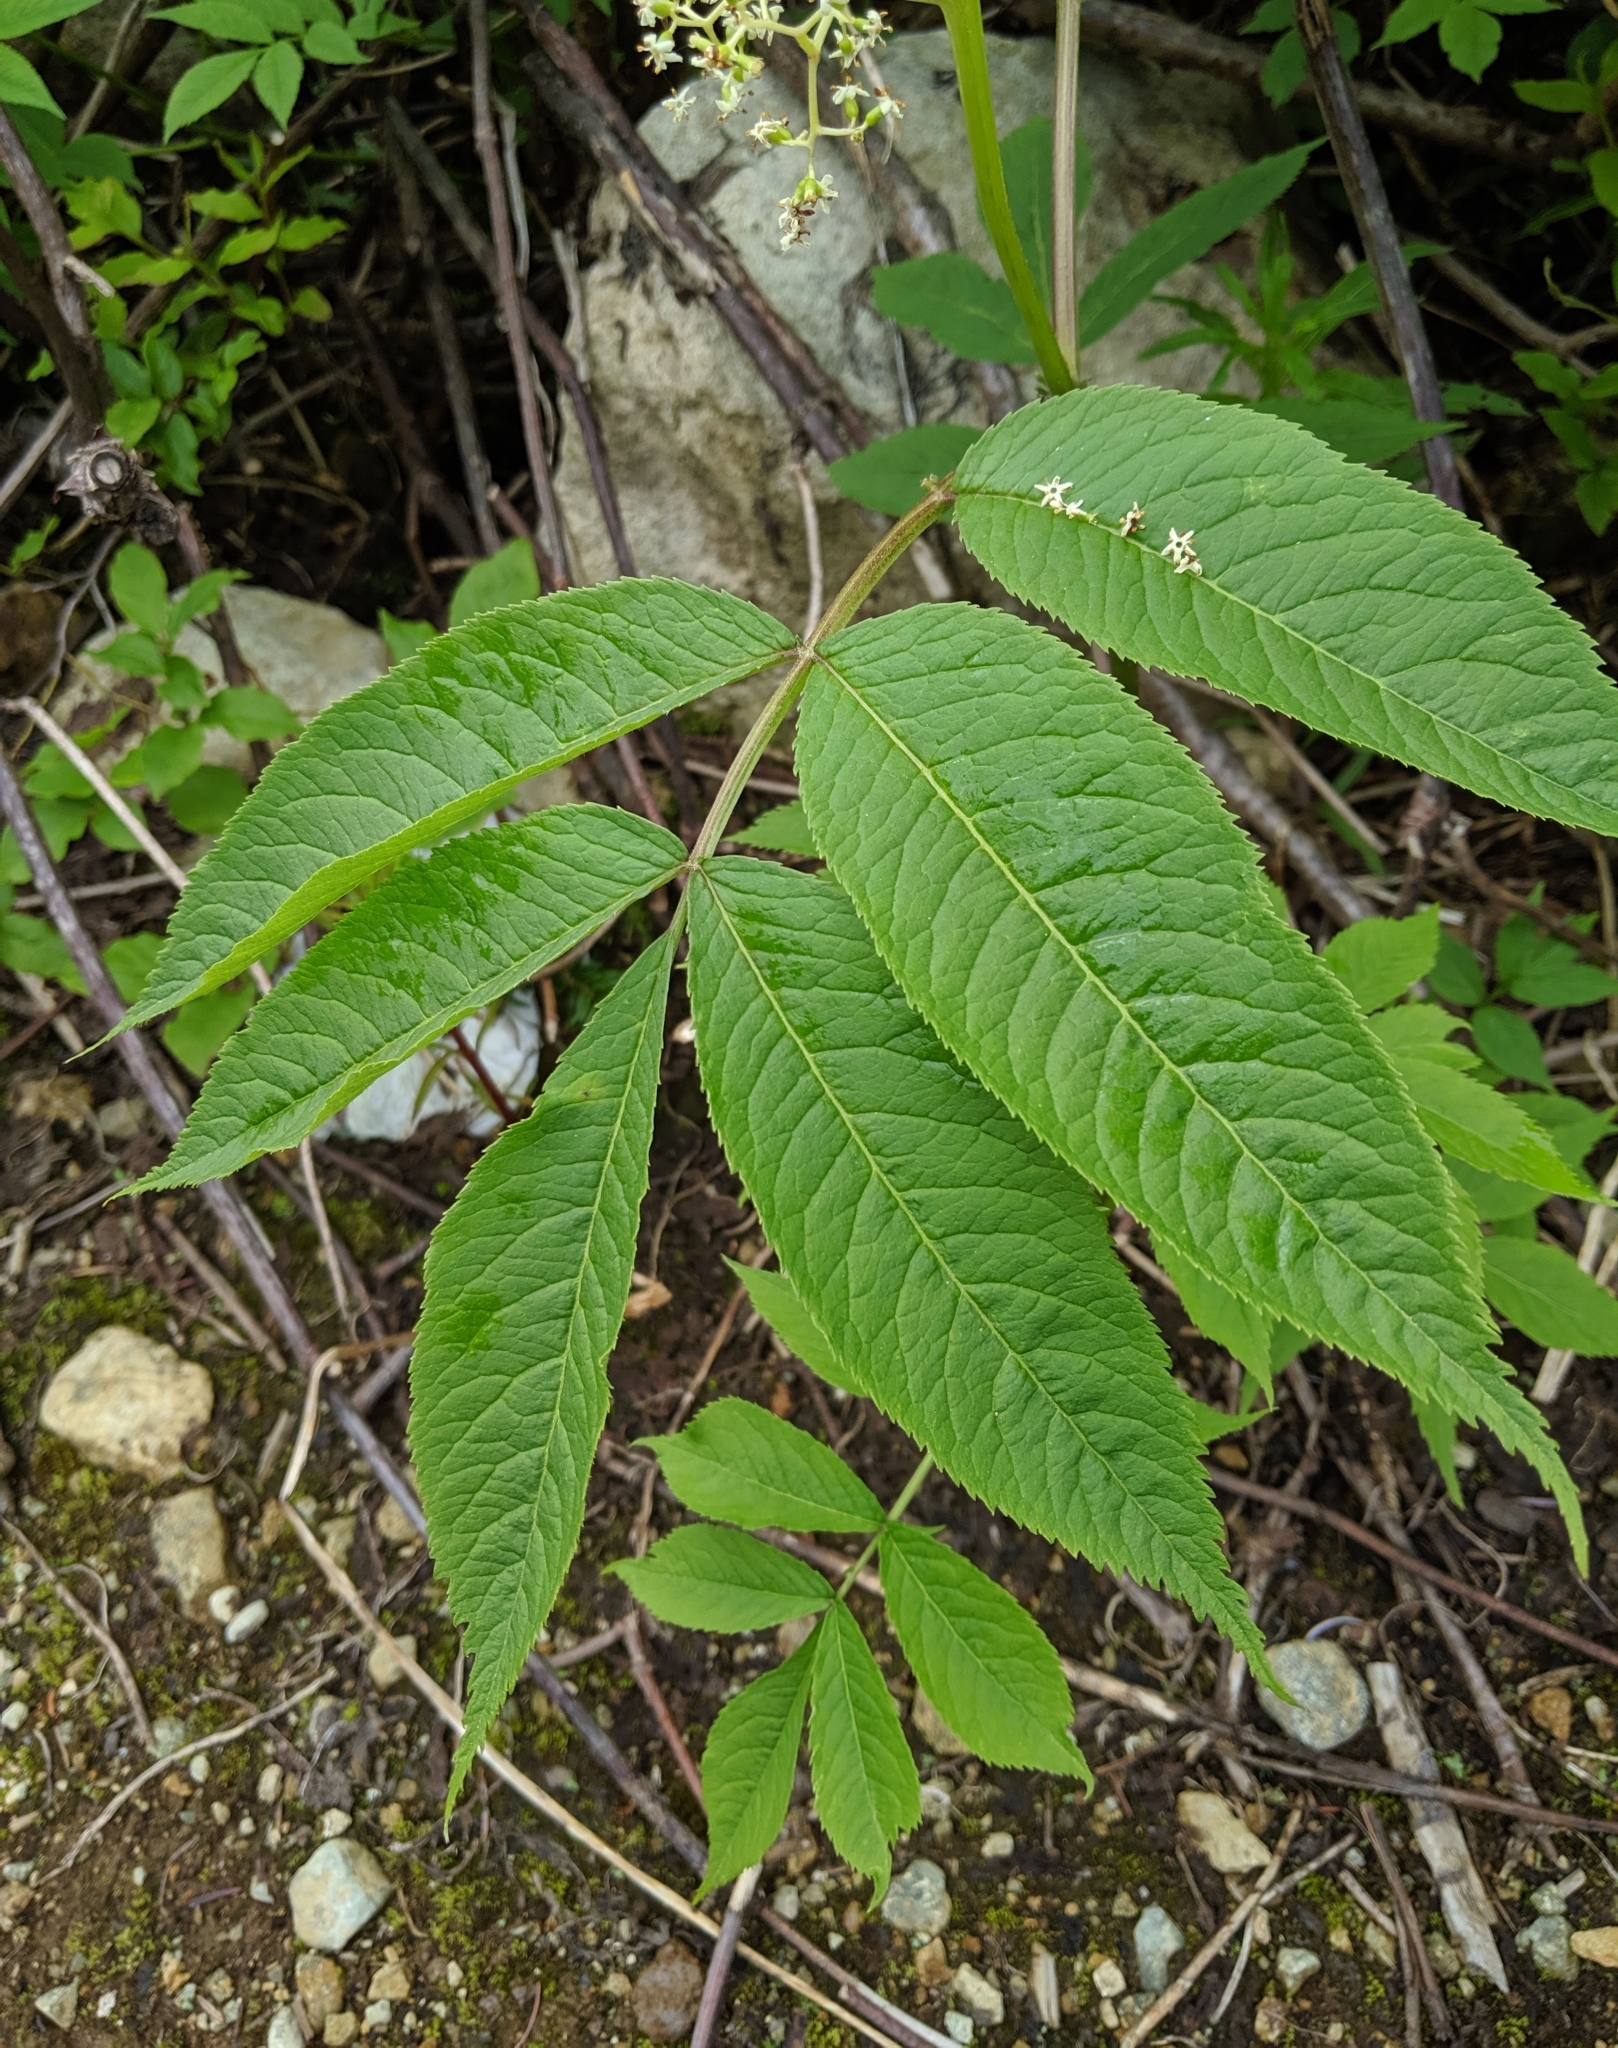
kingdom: Plantae
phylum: Tracheophyta
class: Magnoliopsida
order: Dipsacales
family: Viburnaceae
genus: Sambucus
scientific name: Sambucus racemosa
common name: Red-berried elder
